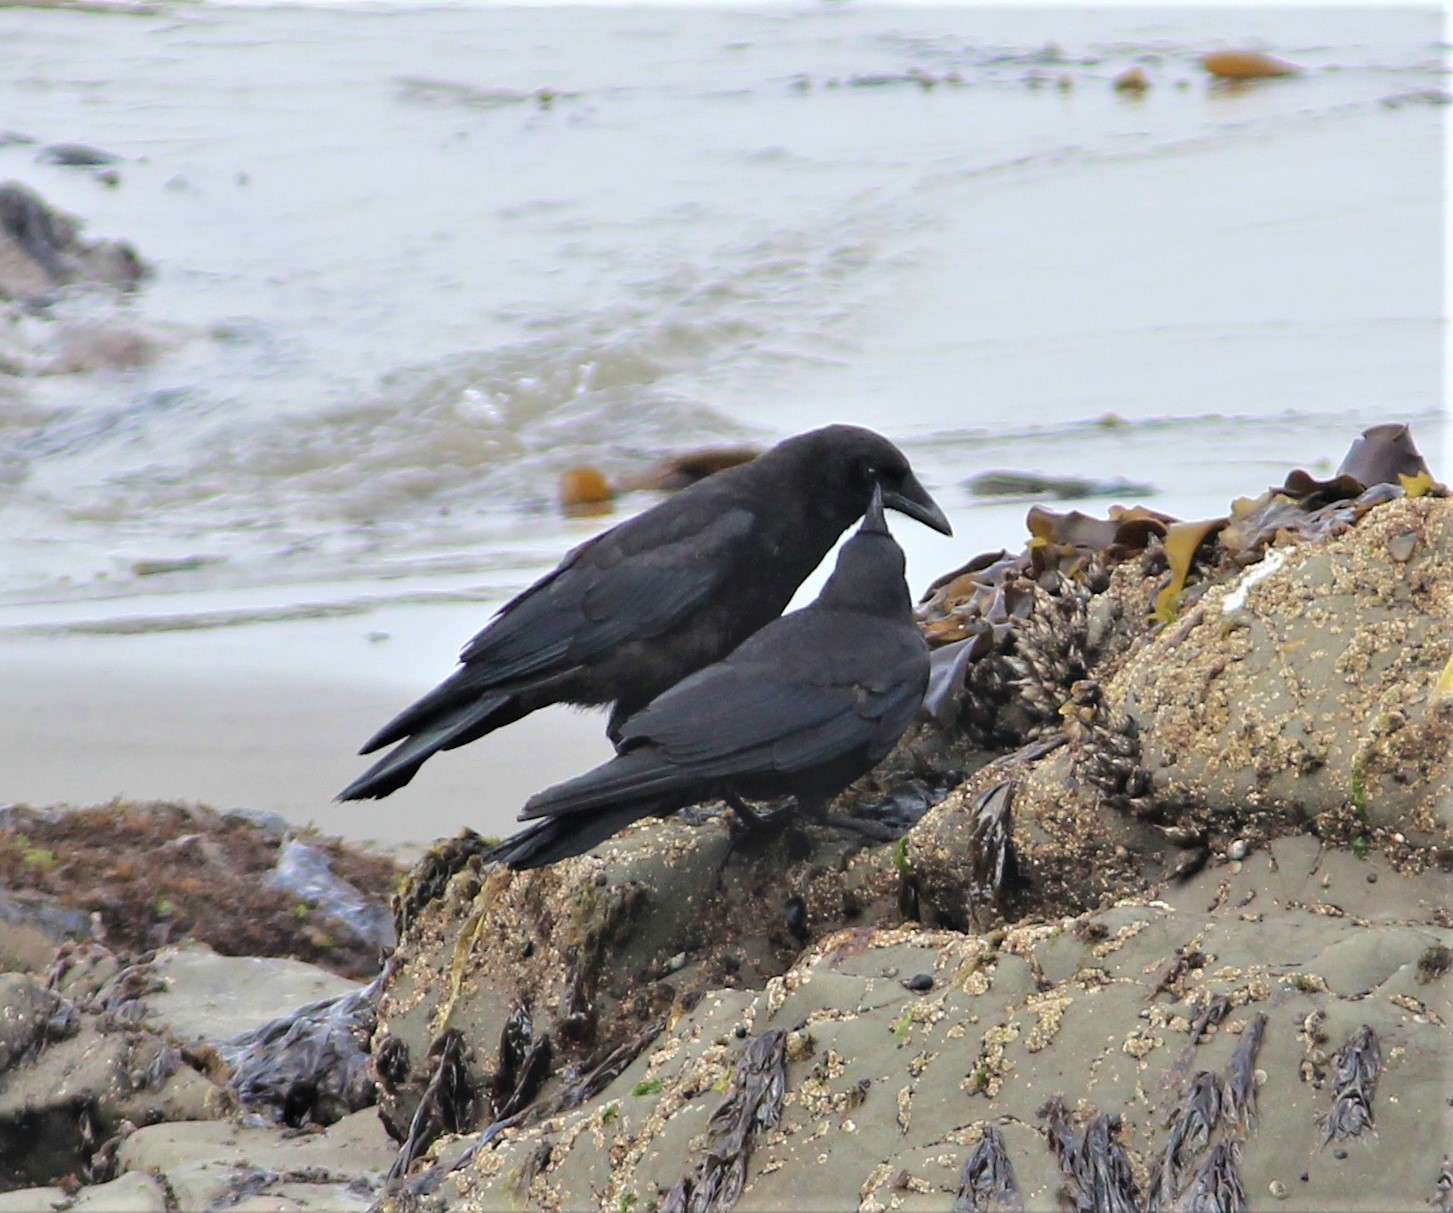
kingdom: Animalia
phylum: Chordata
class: Aves
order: Passeriformes
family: Corvidae
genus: Corvus
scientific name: Corvus brachyrhynchos
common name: American crow
